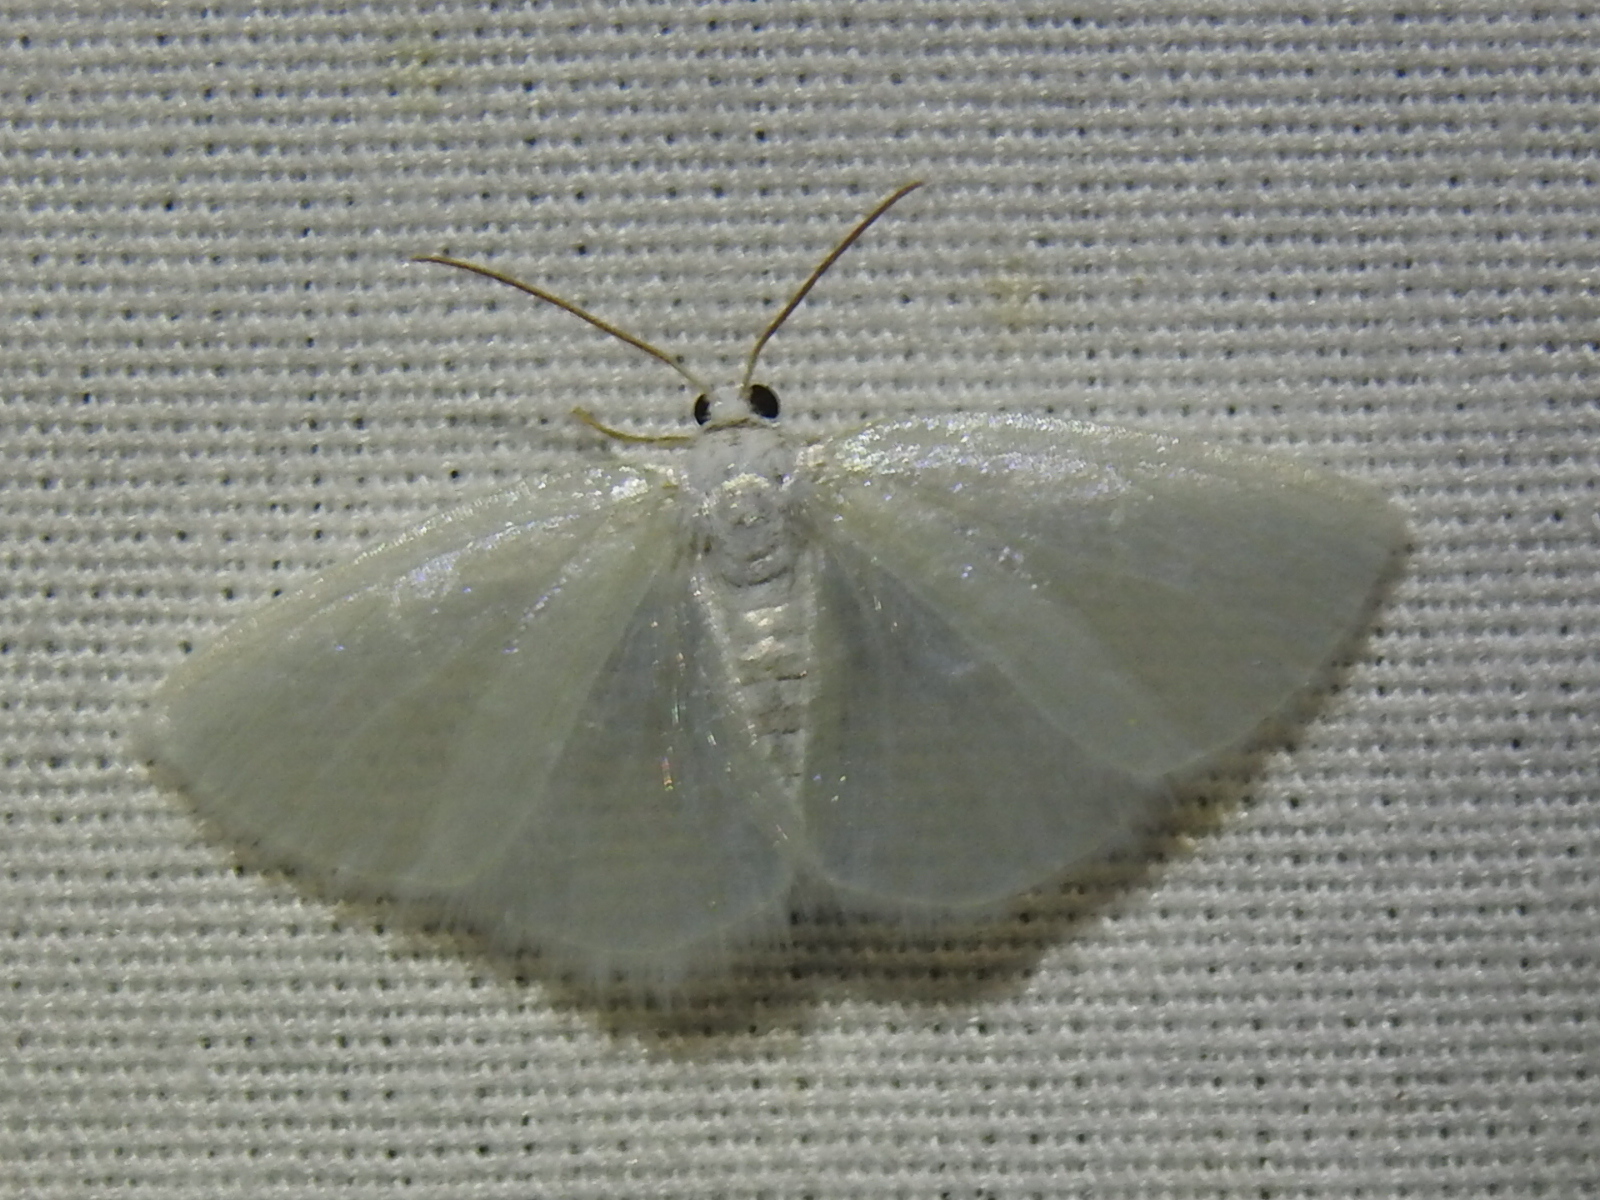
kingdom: Animalia
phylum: Arthropoda
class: Insecta
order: Lepidoptera
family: Geometridae
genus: Lomographa
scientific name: Lomographa vestaliata
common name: White spring moth
